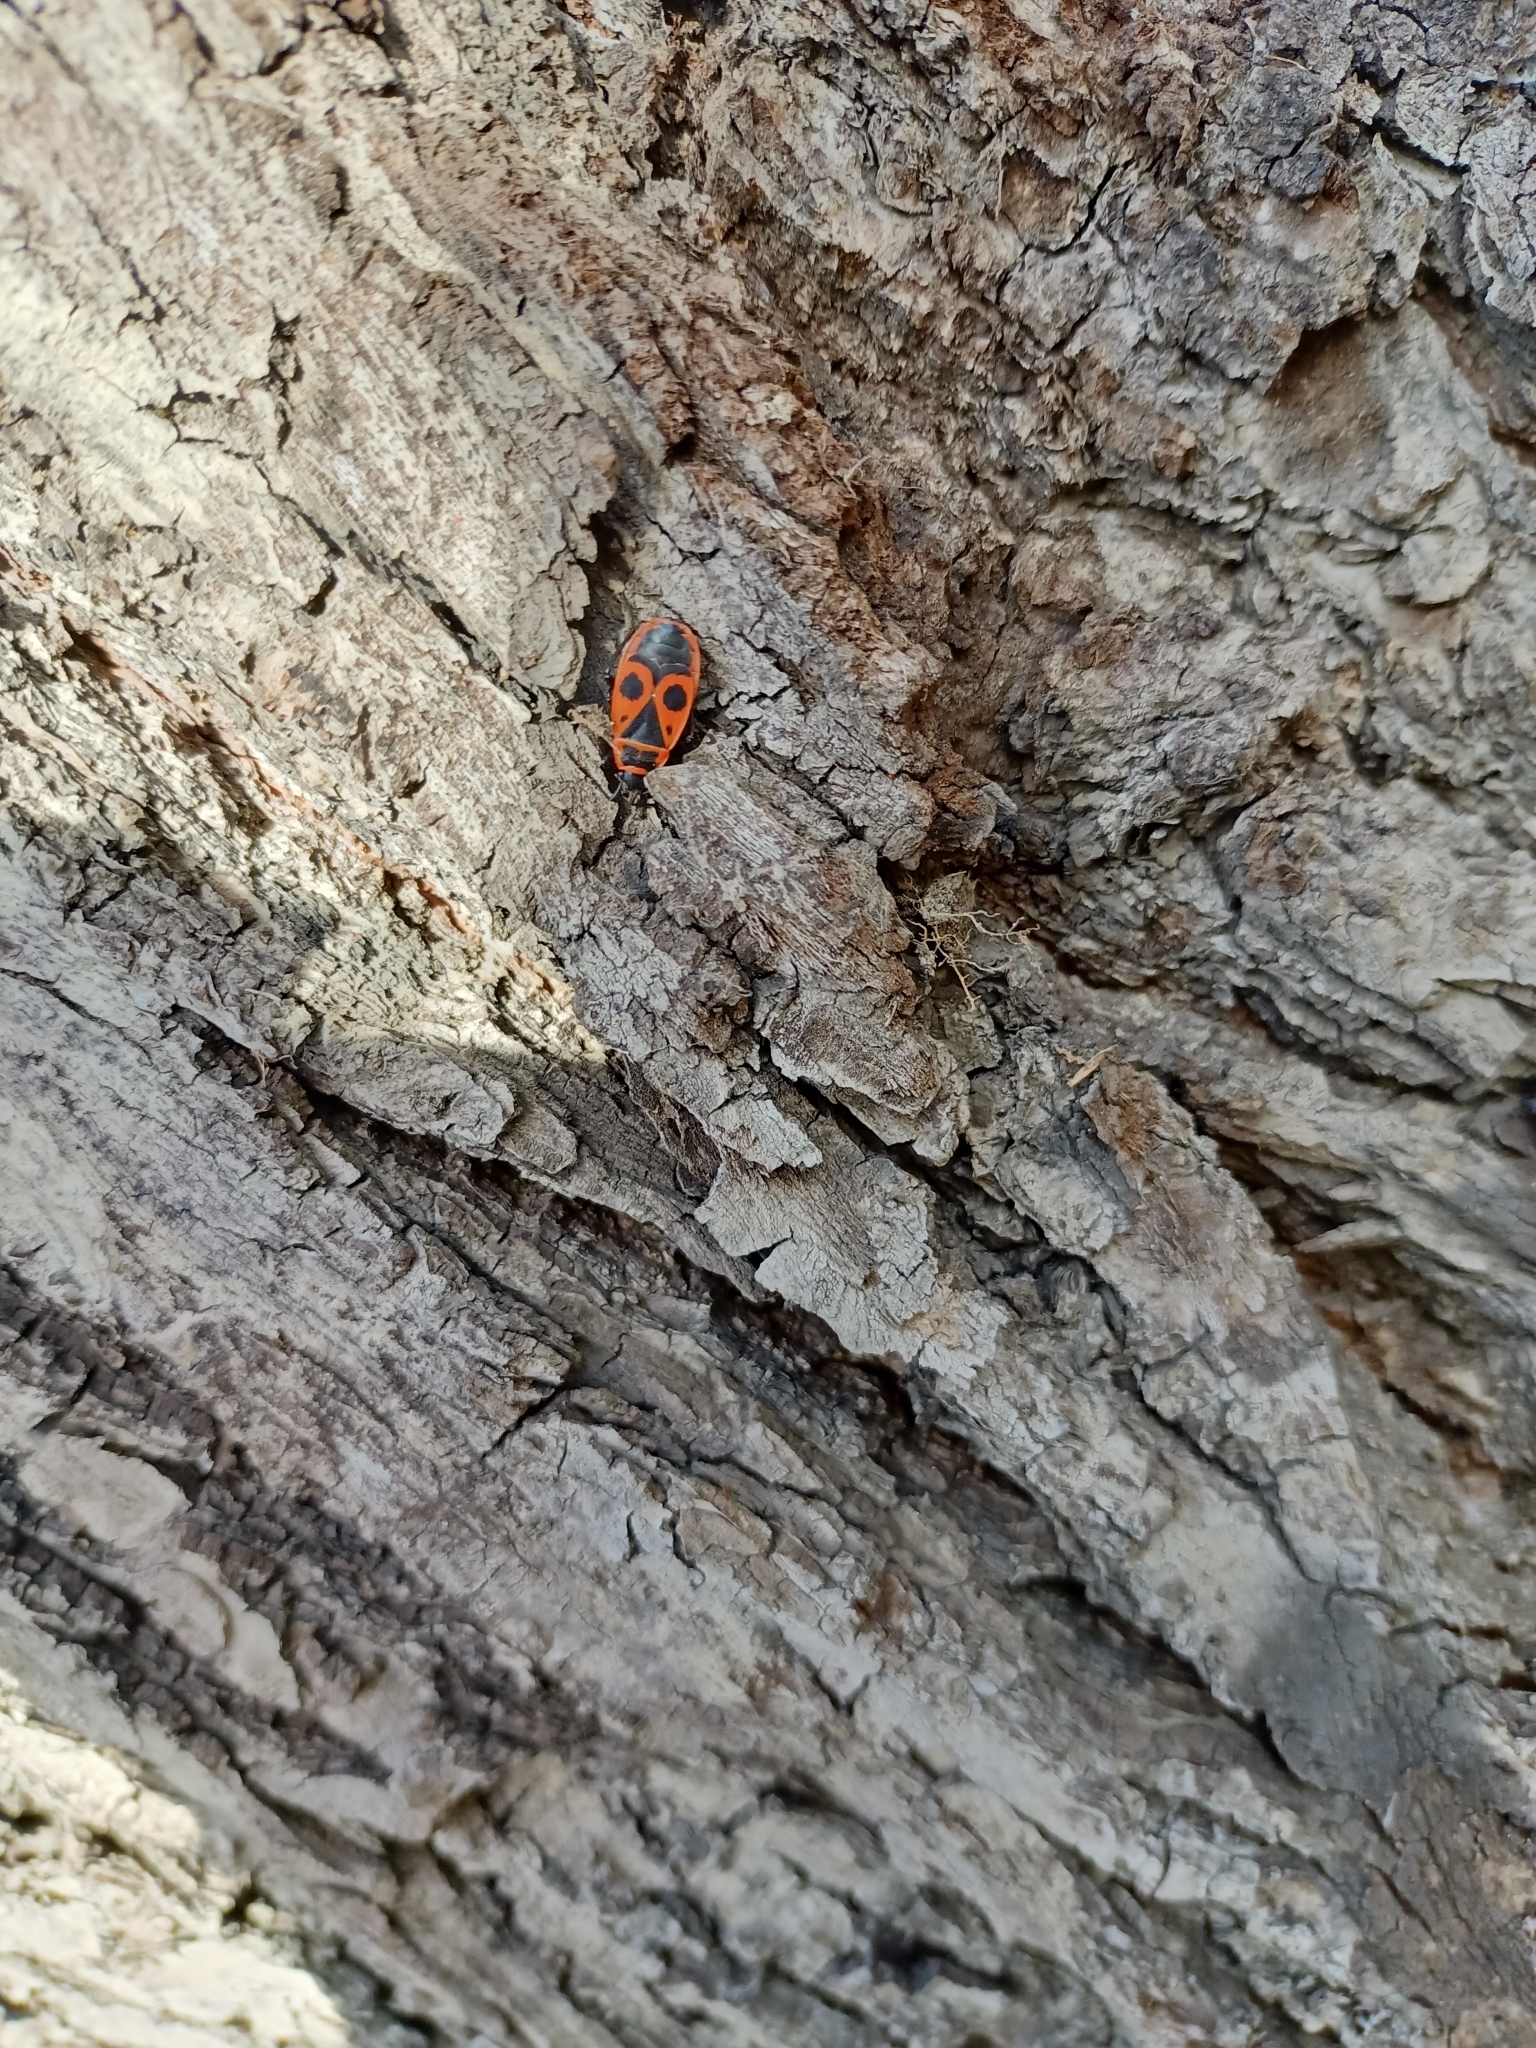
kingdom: Animalia
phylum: Arthropoda
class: Insecta
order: Hemiptera
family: Pyrrhocoridae
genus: Pyrrhocoris
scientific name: Pyrrhocoris apterus
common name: Firebug
